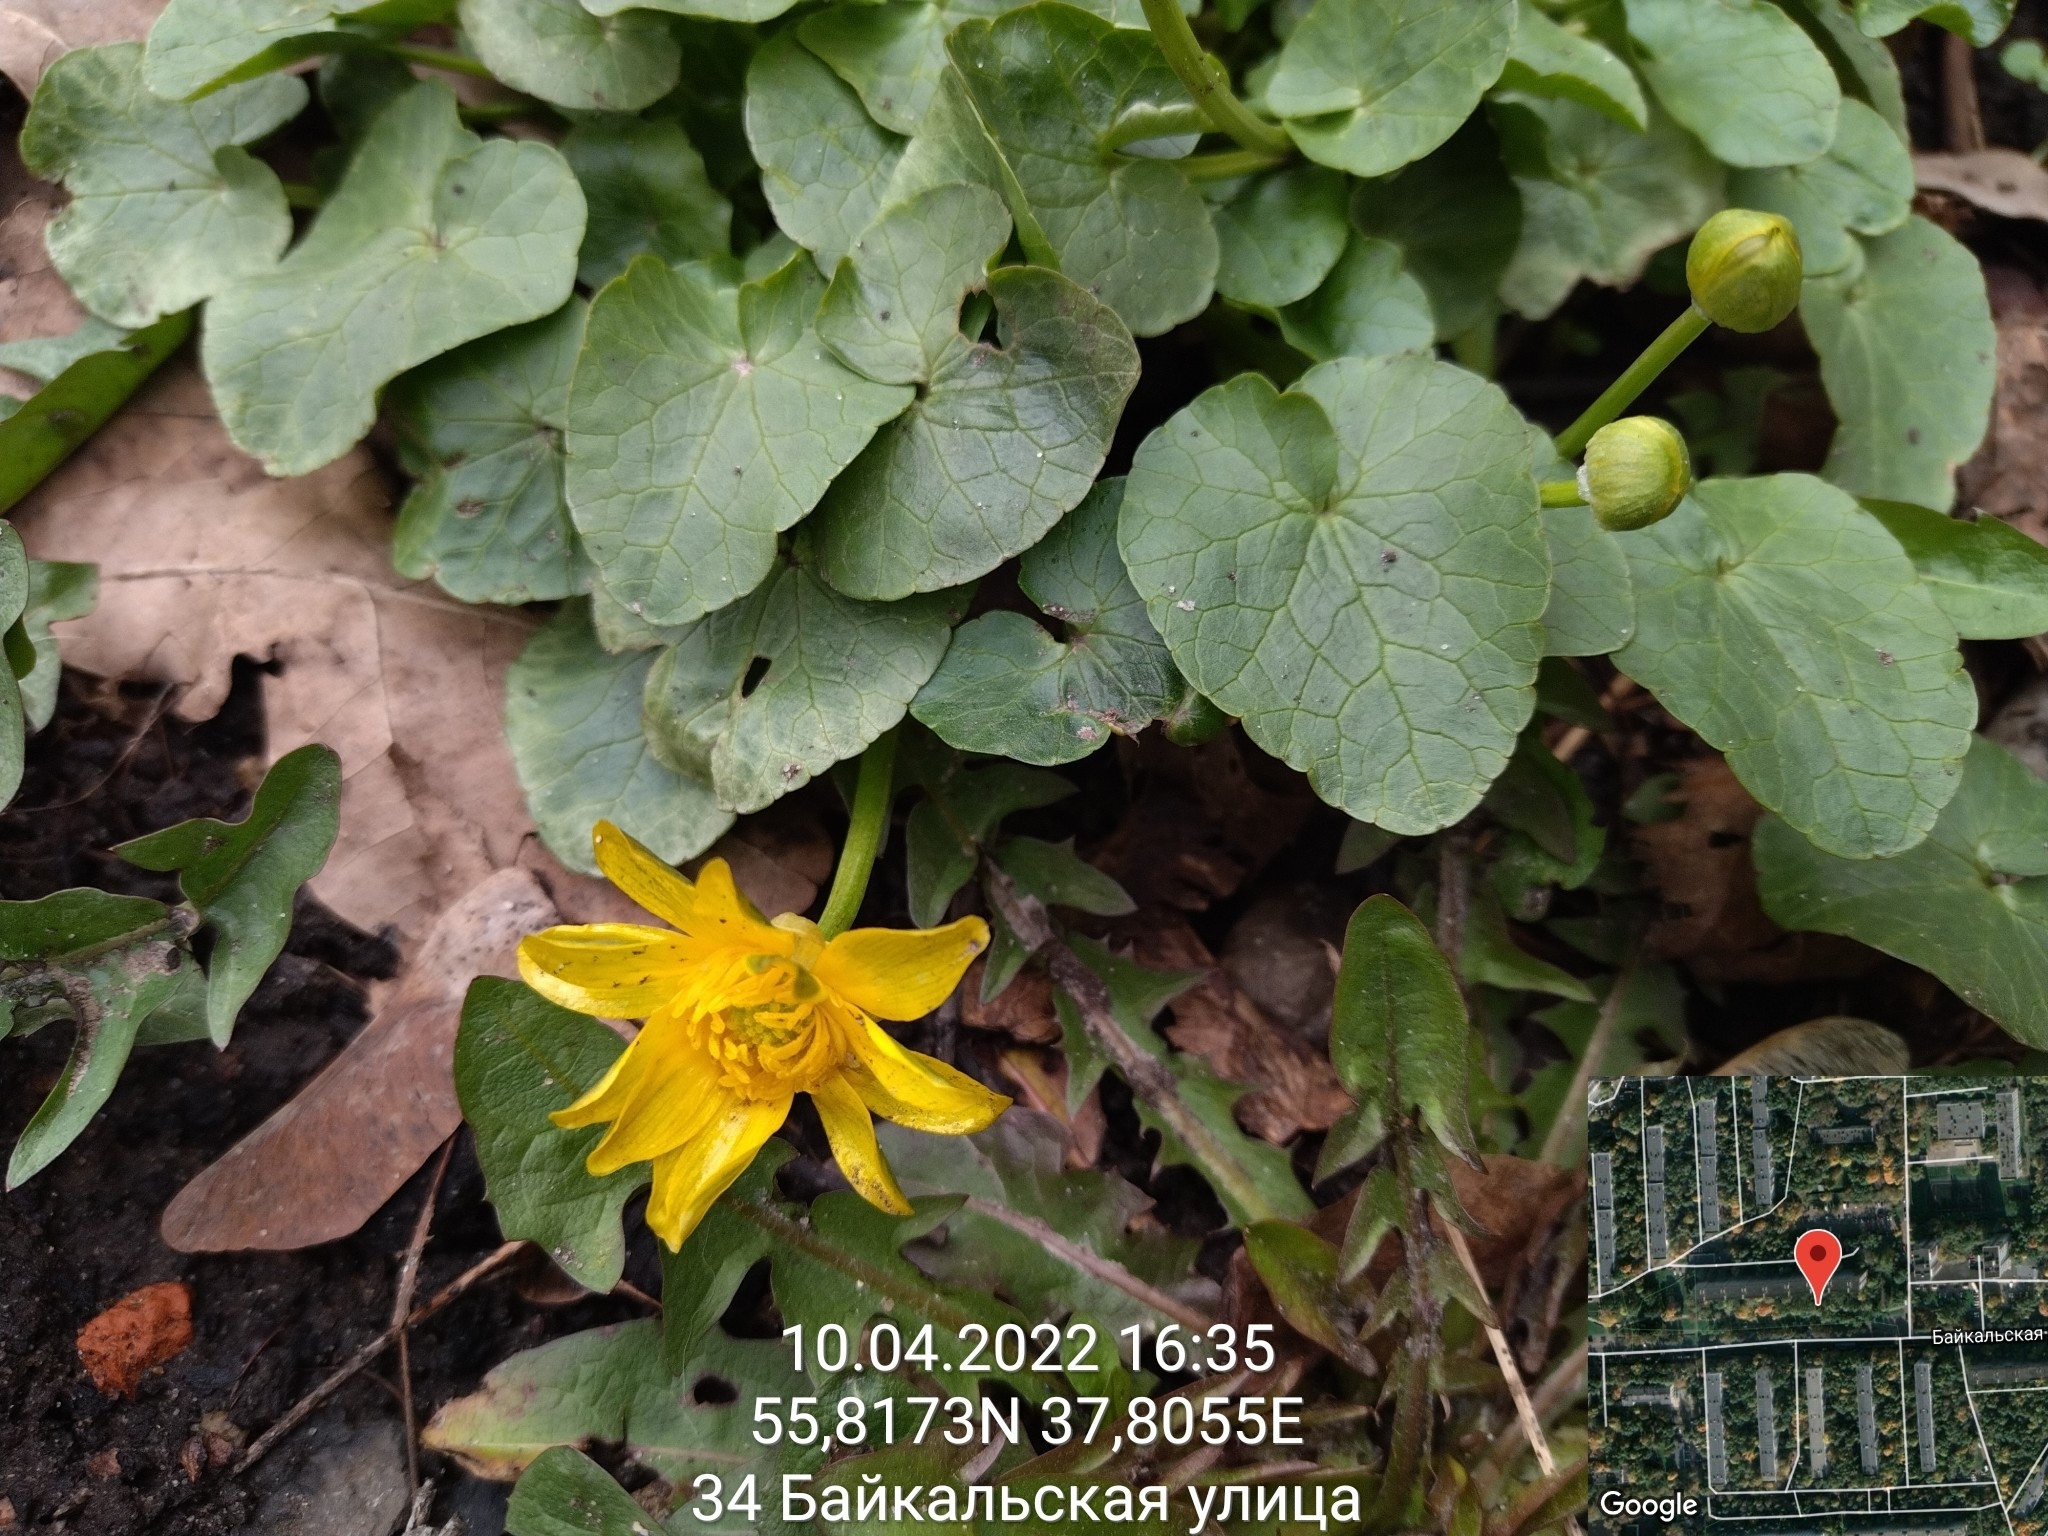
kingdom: Plantae
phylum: Tracheophyta
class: Magnoliopsida
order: Ranunculales
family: Ranunculaceae
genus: Ficaria
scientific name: Ficaria verna
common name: Lesser celandine
